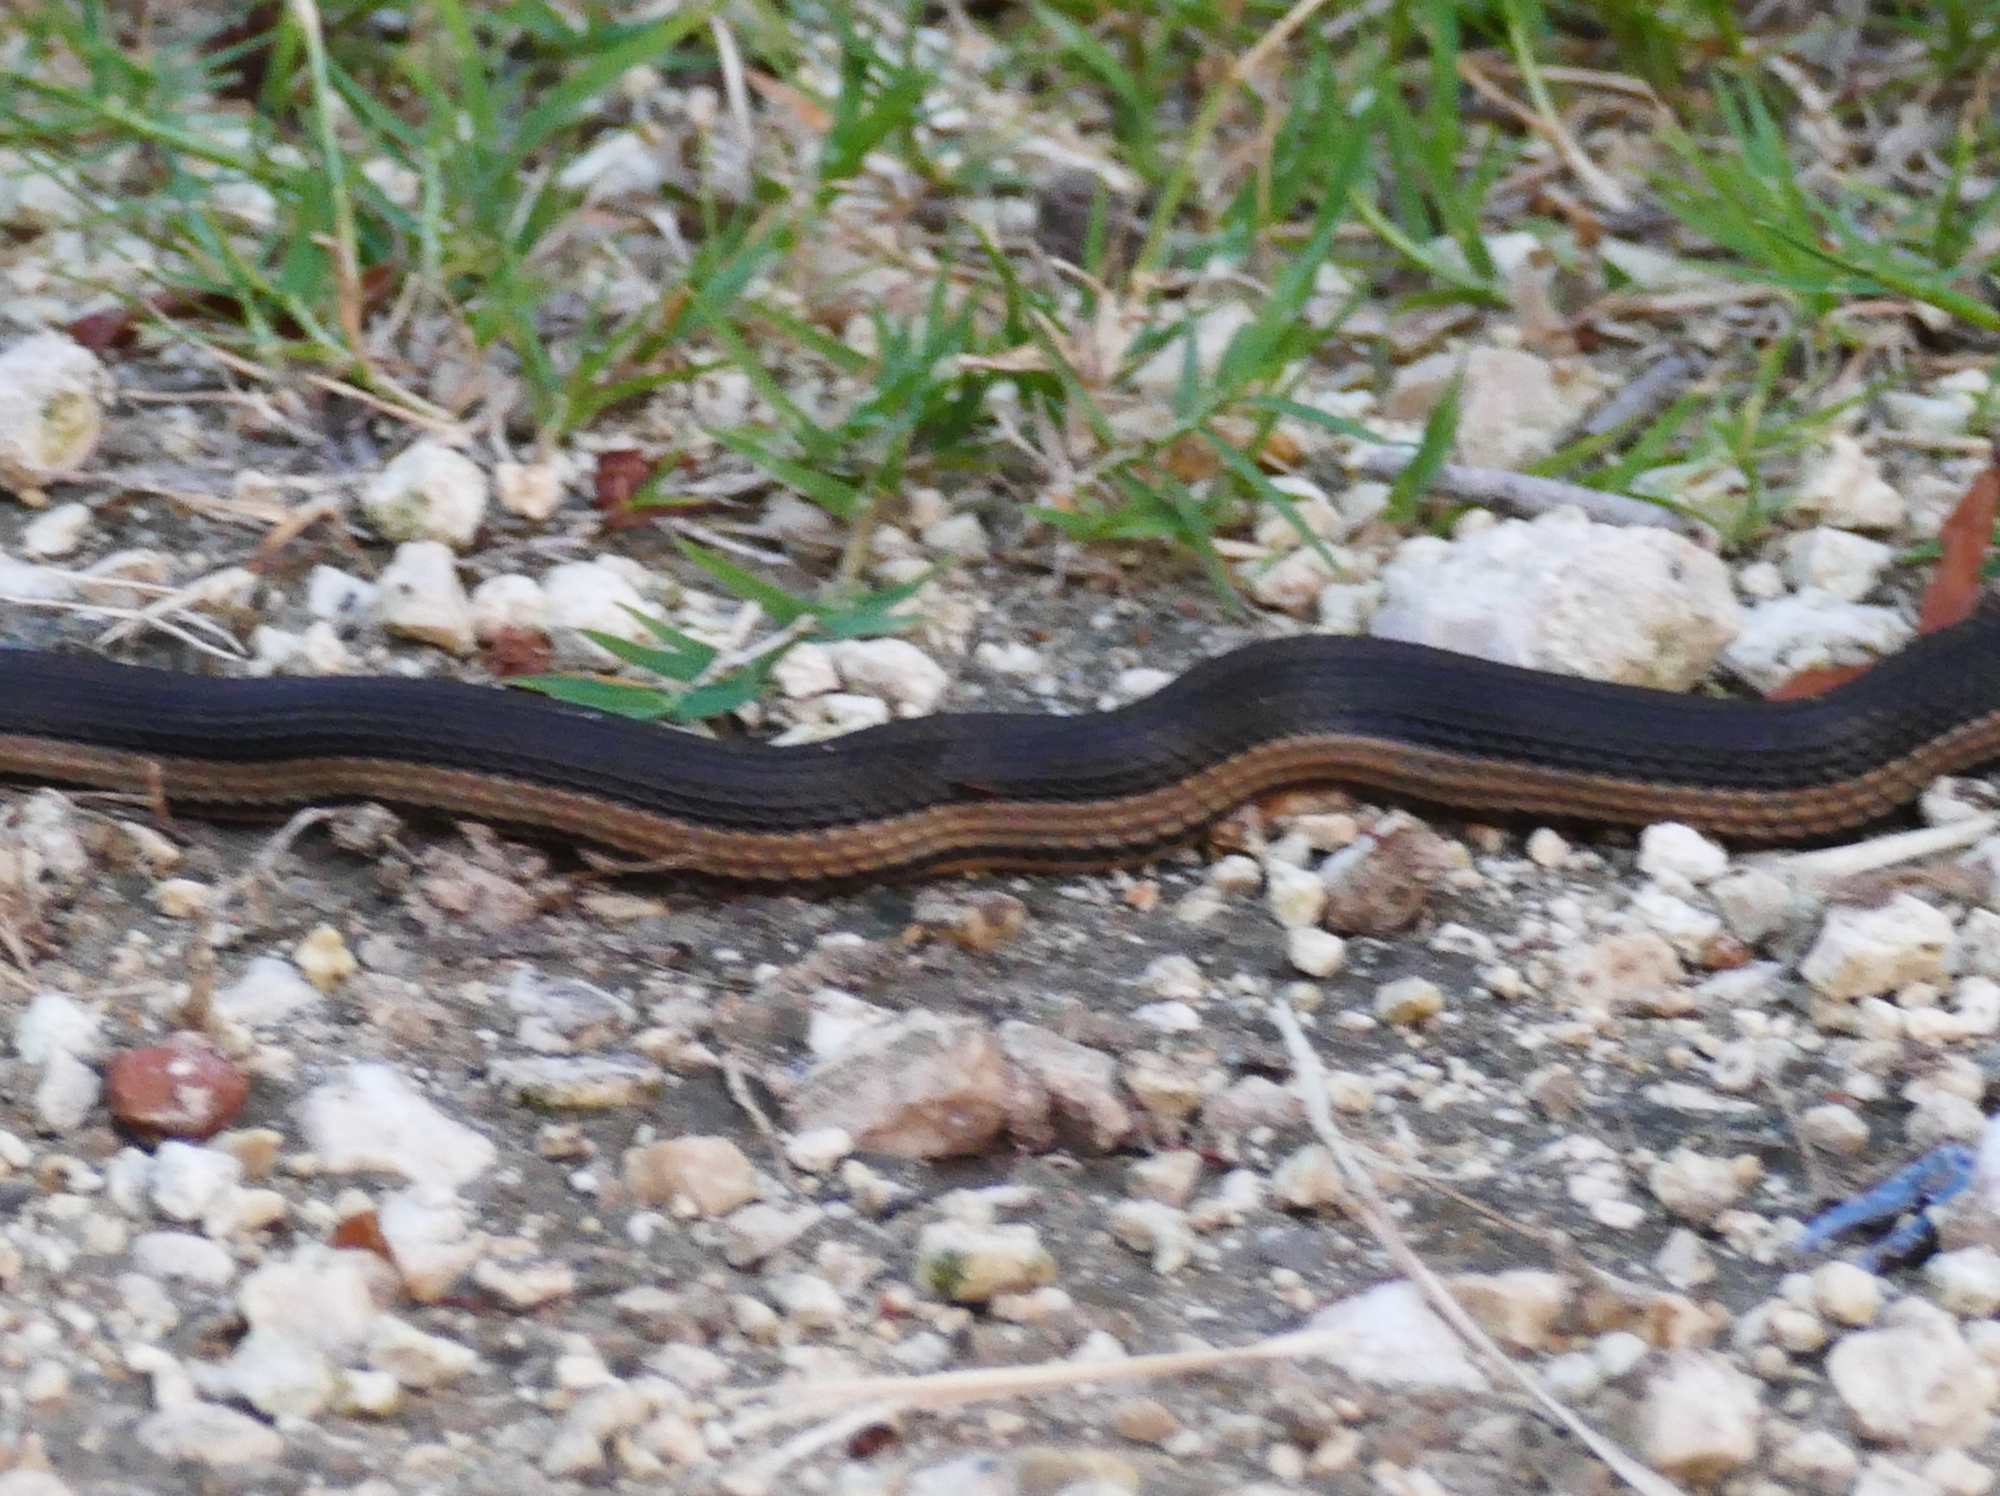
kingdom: Animalia
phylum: Chordata
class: Squamata
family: Colubridae
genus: Regina
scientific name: Regina grahamii
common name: Graham's crayfish snake
